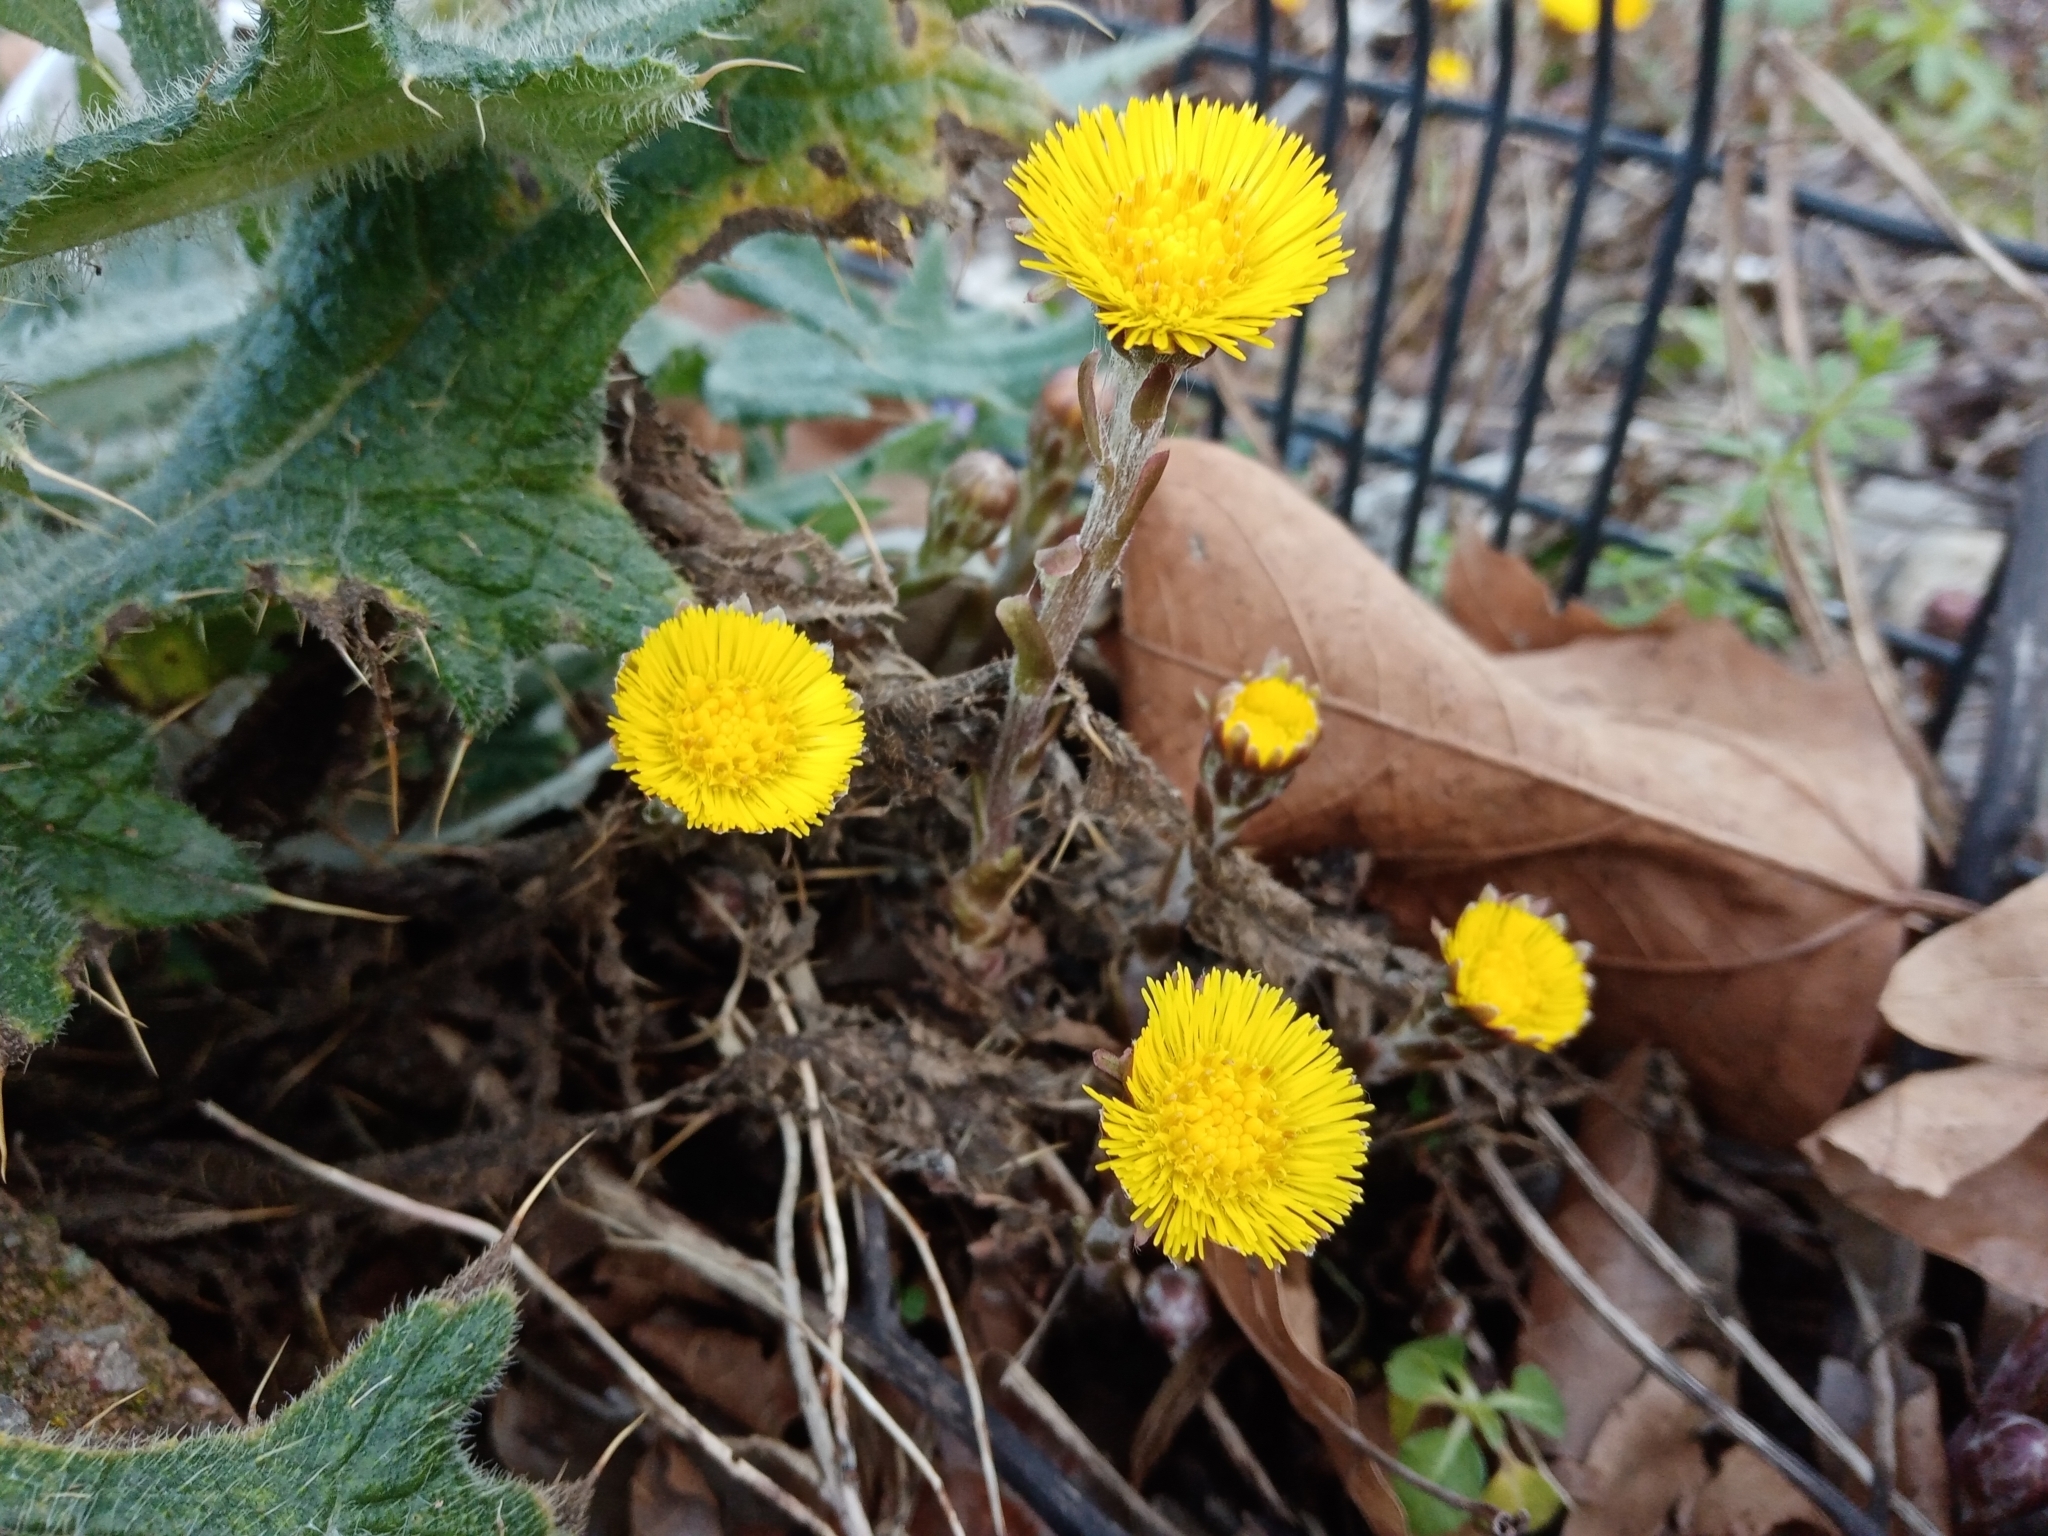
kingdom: Plantae
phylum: Tracheophyta
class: Magnoliopsida
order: Asterales
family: Asteraceae
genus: Tussilago
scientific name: Tussilago farfara
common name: Coltsfoot
